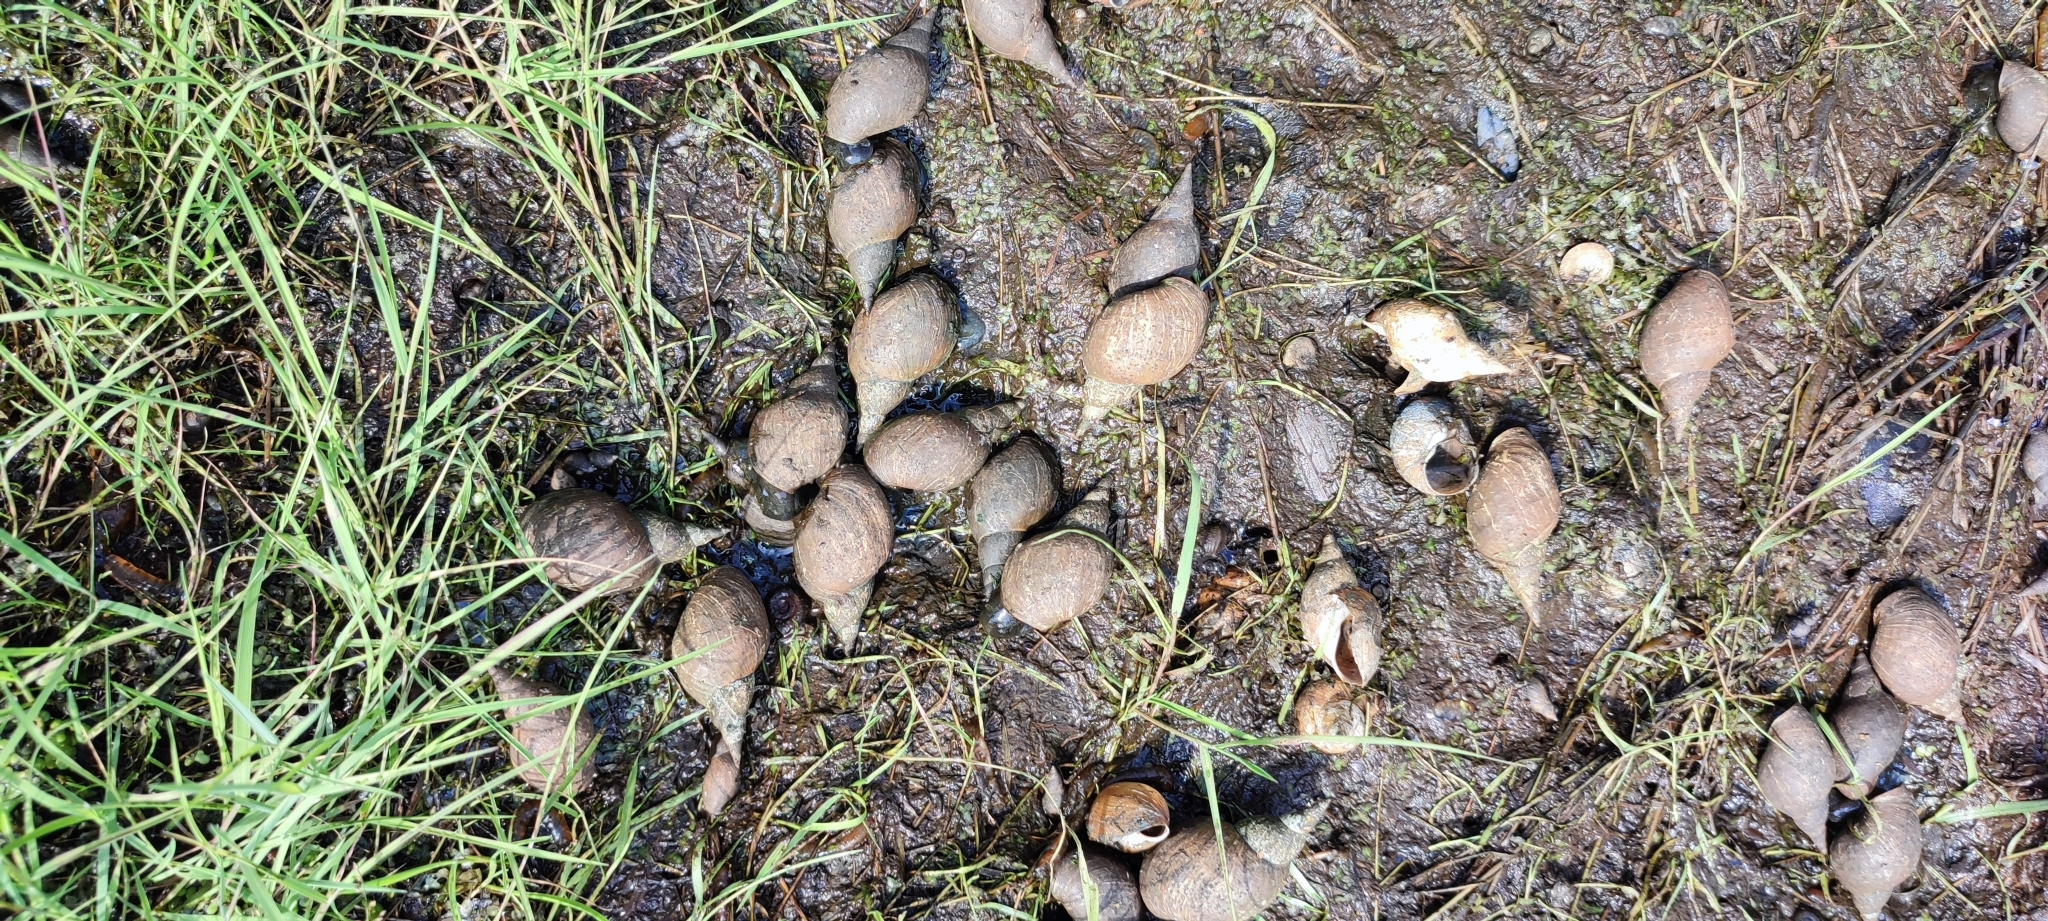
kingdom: Animalia
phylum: Mollusca
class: Gastropoda
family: Lymnaeidae
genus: Lymnaea
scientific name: Lymnaea stagnalis
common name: Great pond snail
